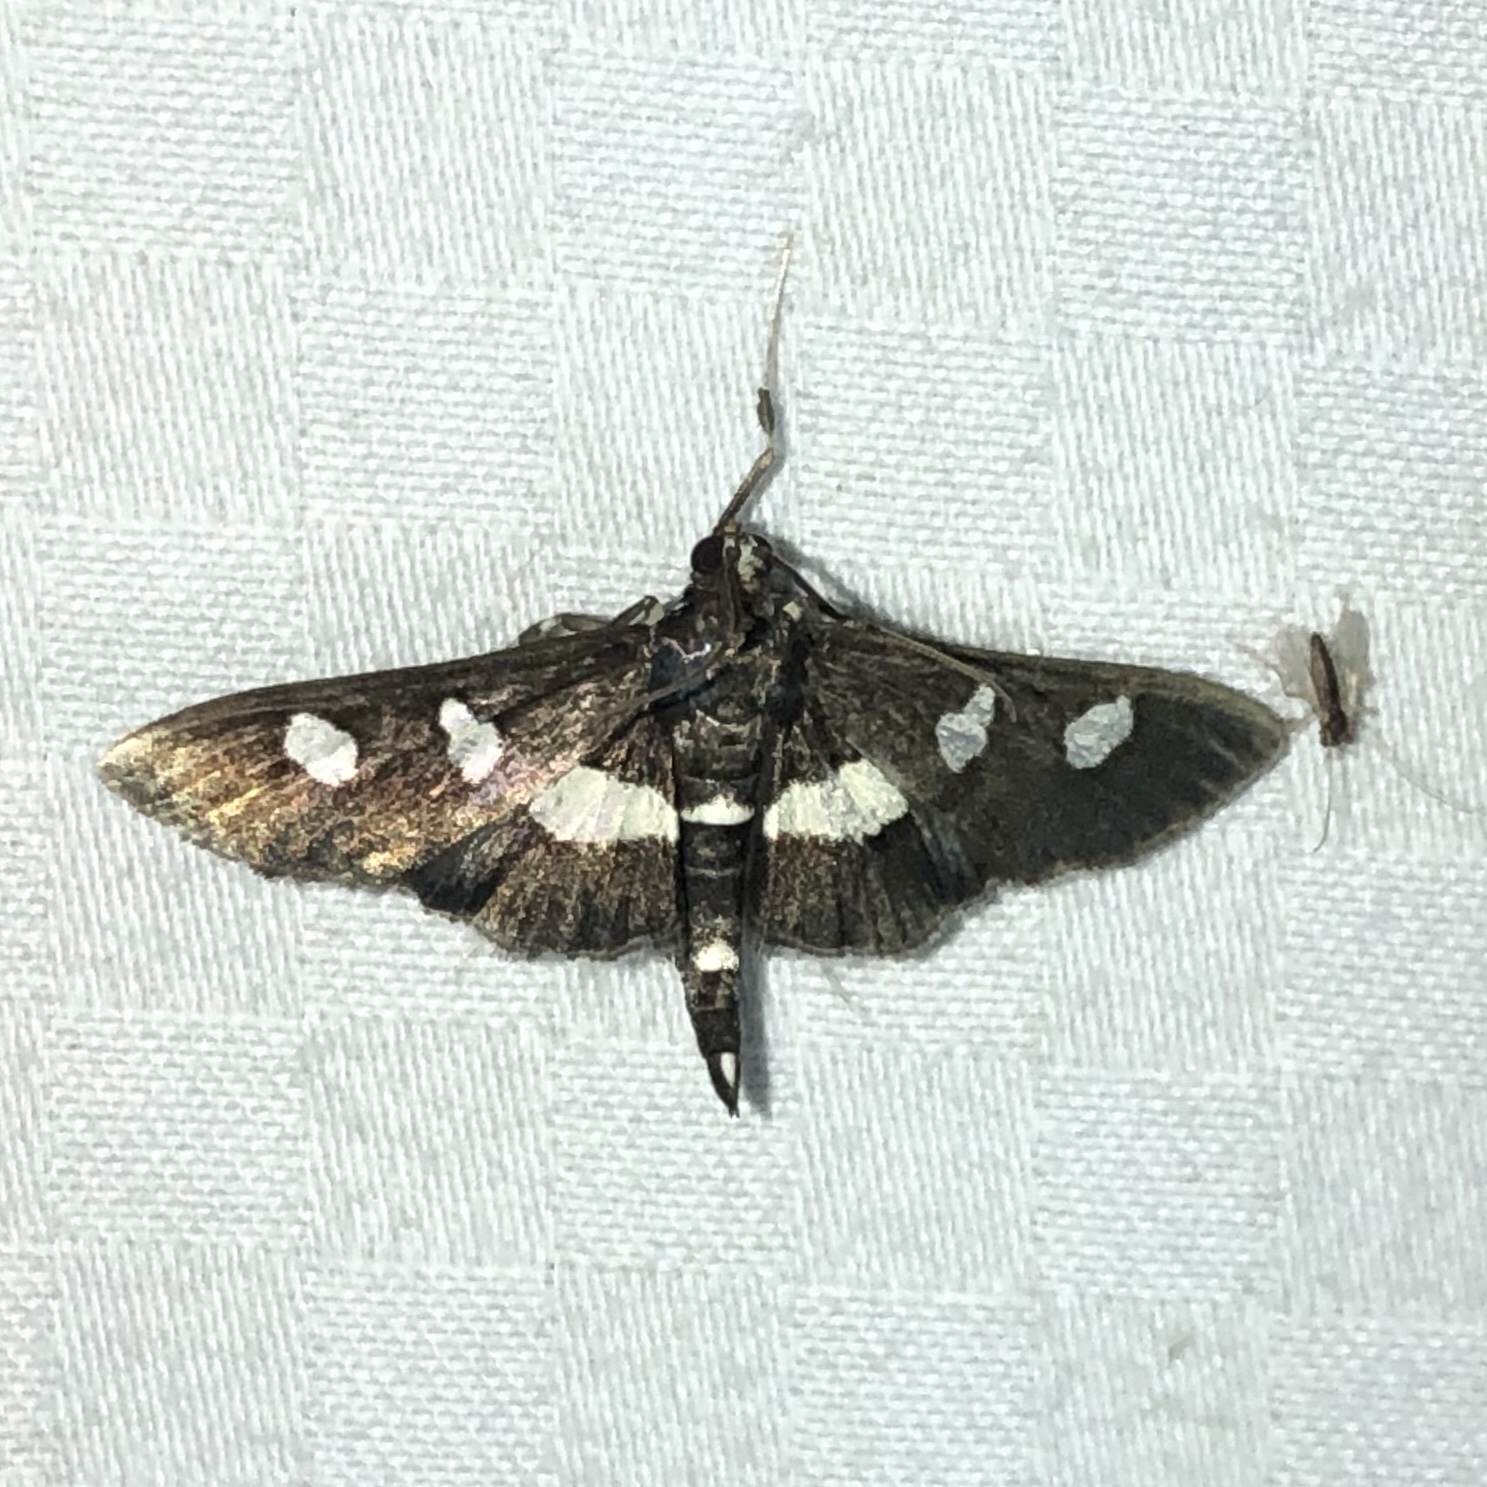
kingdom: Animalia
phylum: Arthropoda
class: Insecta
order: Lepidoptera
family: Crambidae
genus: Desmia
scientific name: Desmia funeralis
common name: Grape leaf folder moth
